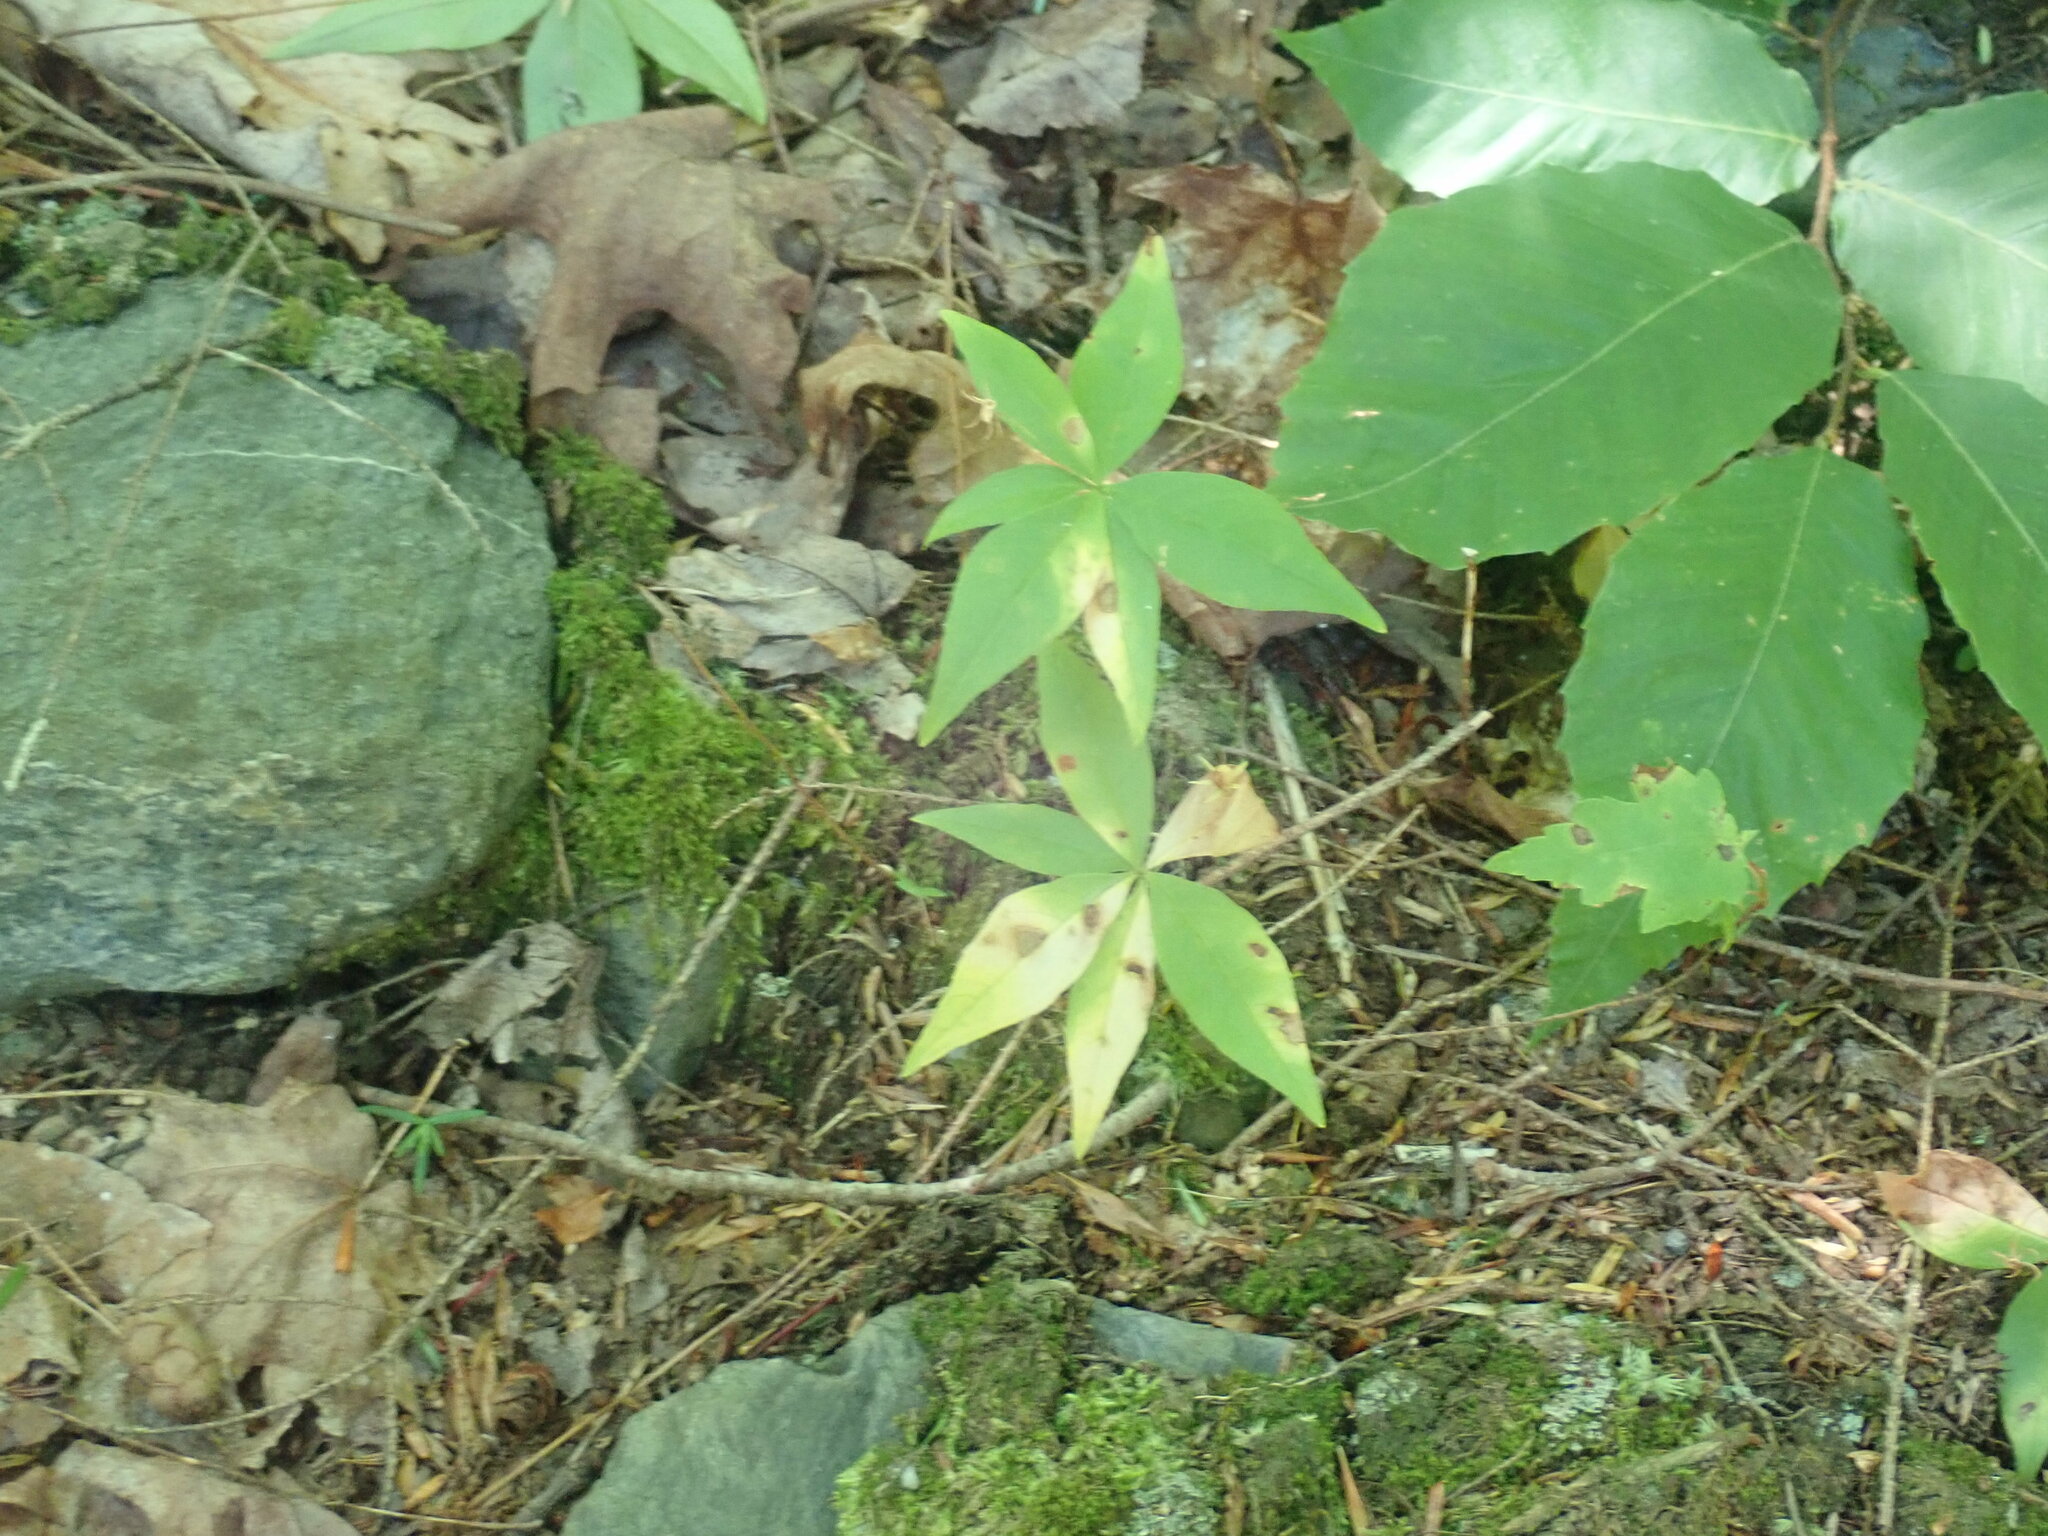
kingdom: Plantae
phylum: Tracheophyta
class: Magnoliopsida
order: Ericales
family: Primulaceae
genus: Lysimachia
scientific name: Lysimachia borealis
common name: American starflower
